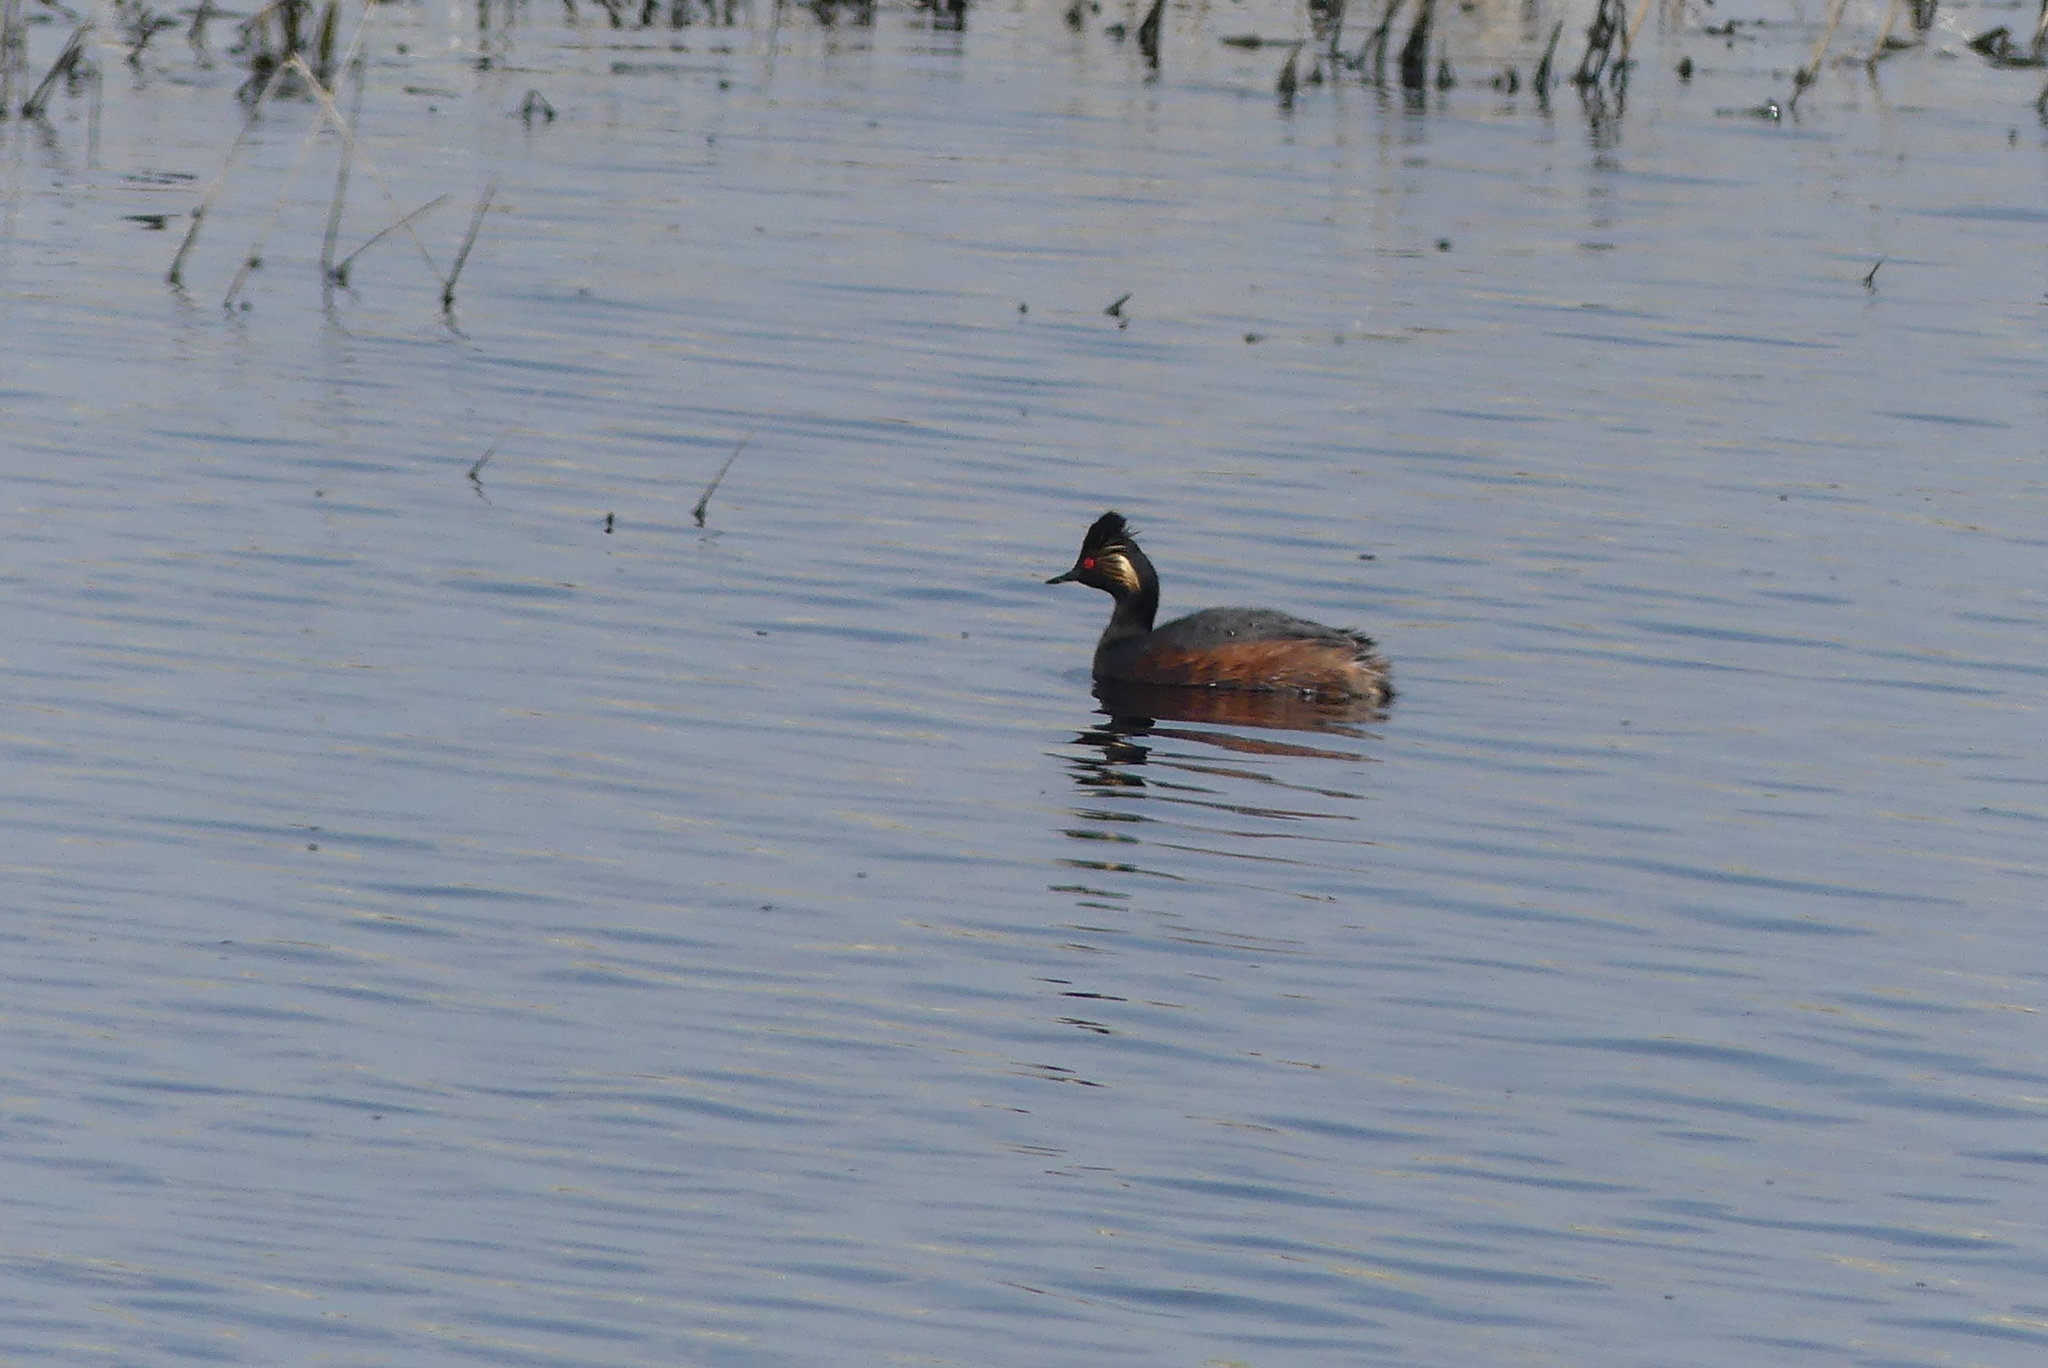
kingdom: Animalia
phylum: Chordata
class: Aves
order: Podicipediformes
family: Podicipedidae
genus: Podiceps
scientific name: Podiceps nigricollis
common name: Black-necked grebe
